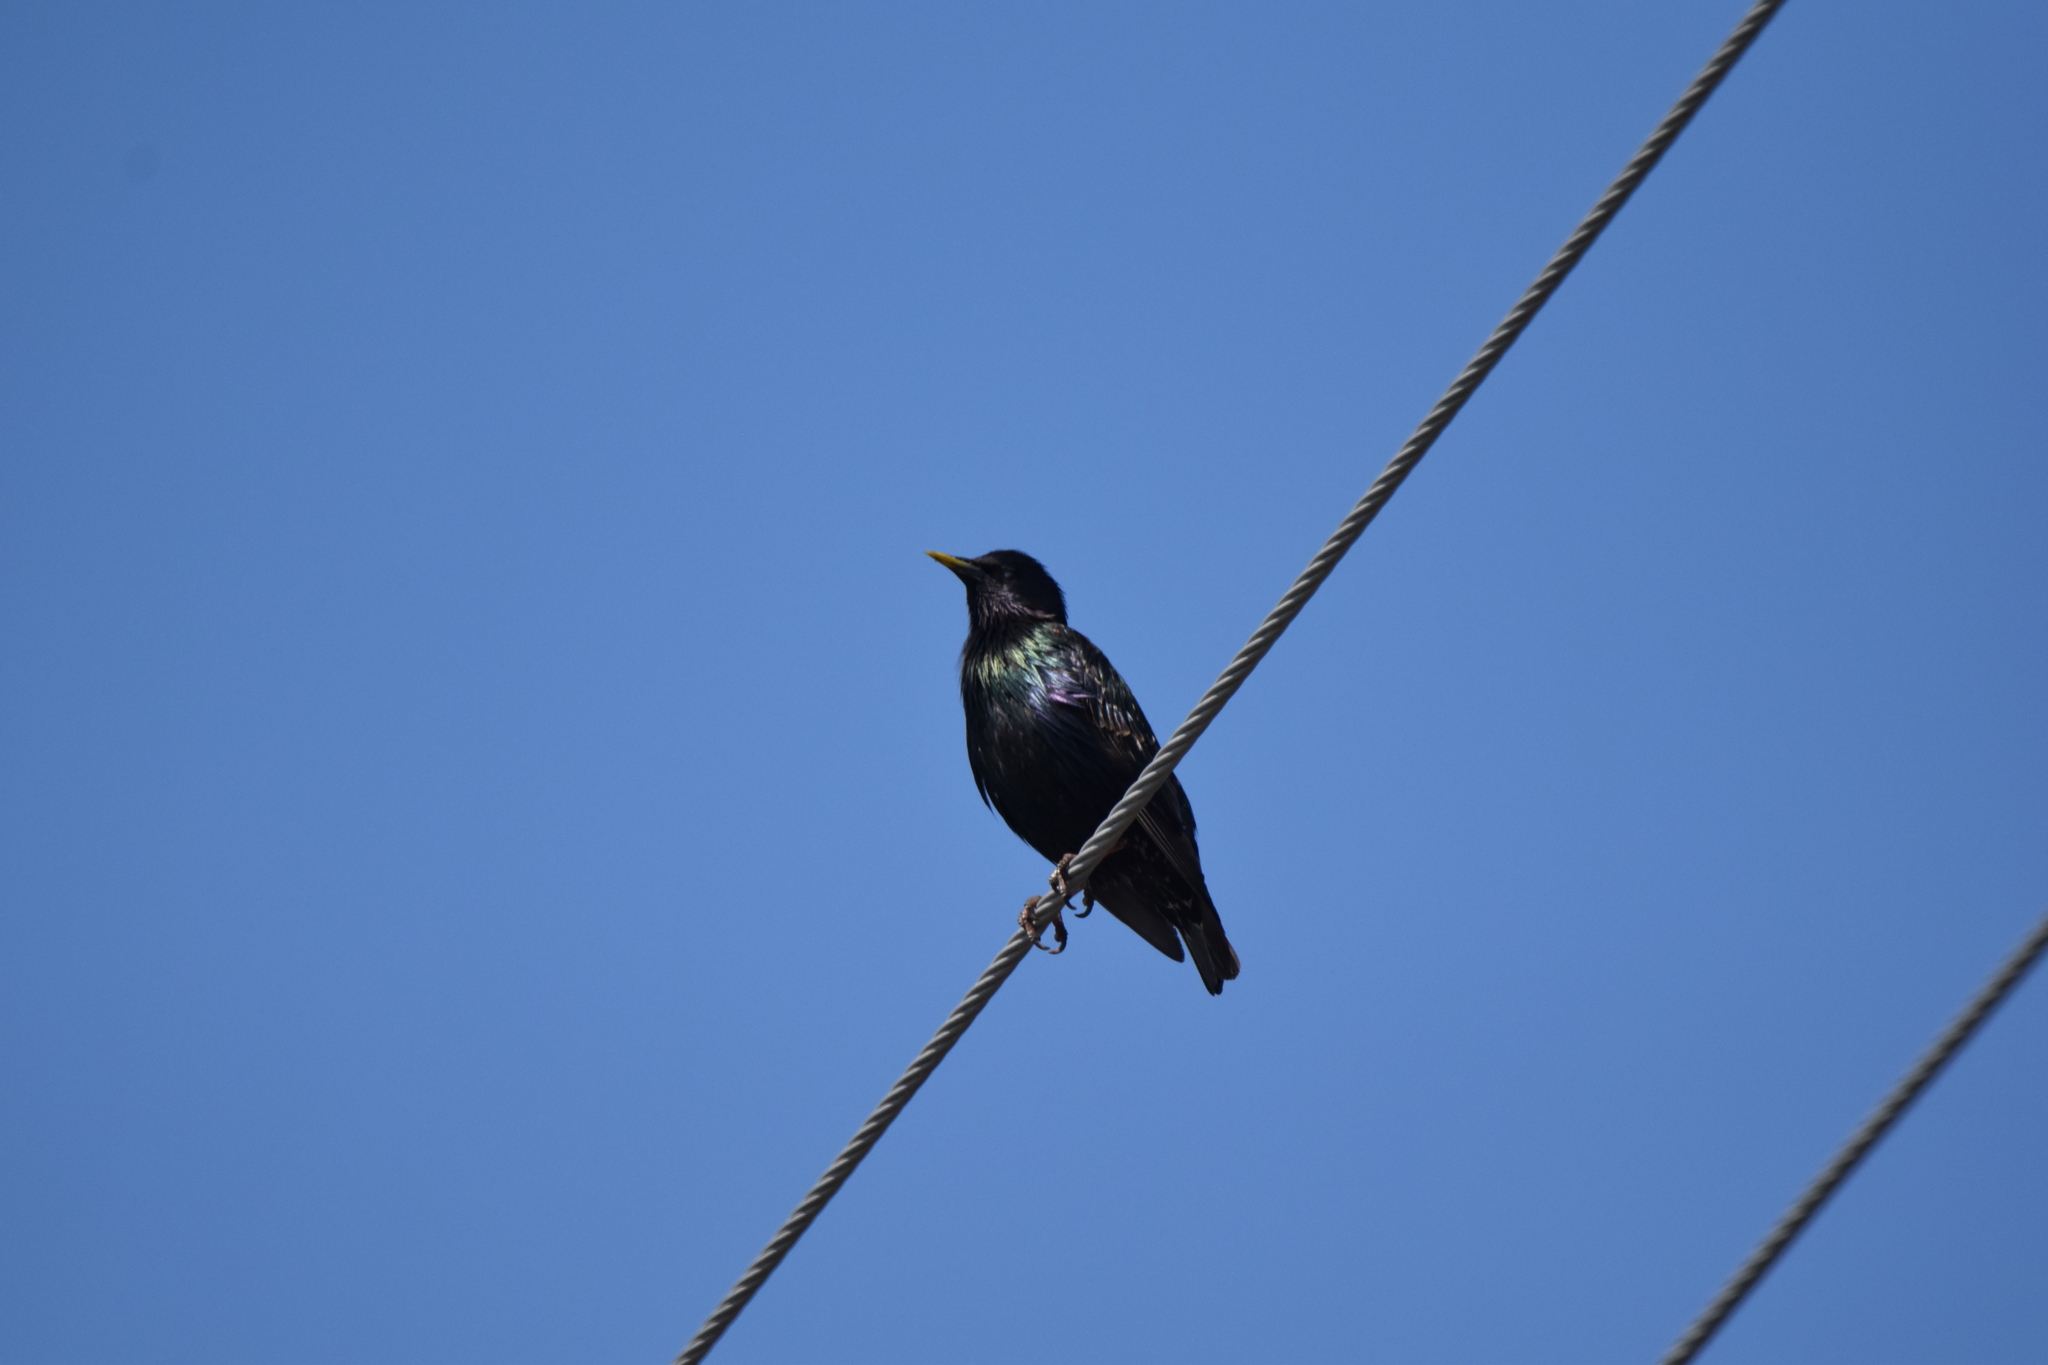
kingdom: Animalia
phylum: Chordata
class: Aves
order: Passeriformes
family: Sturnidae
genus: Sturnus
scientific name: Sturnus vulgaris
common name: Common starling
